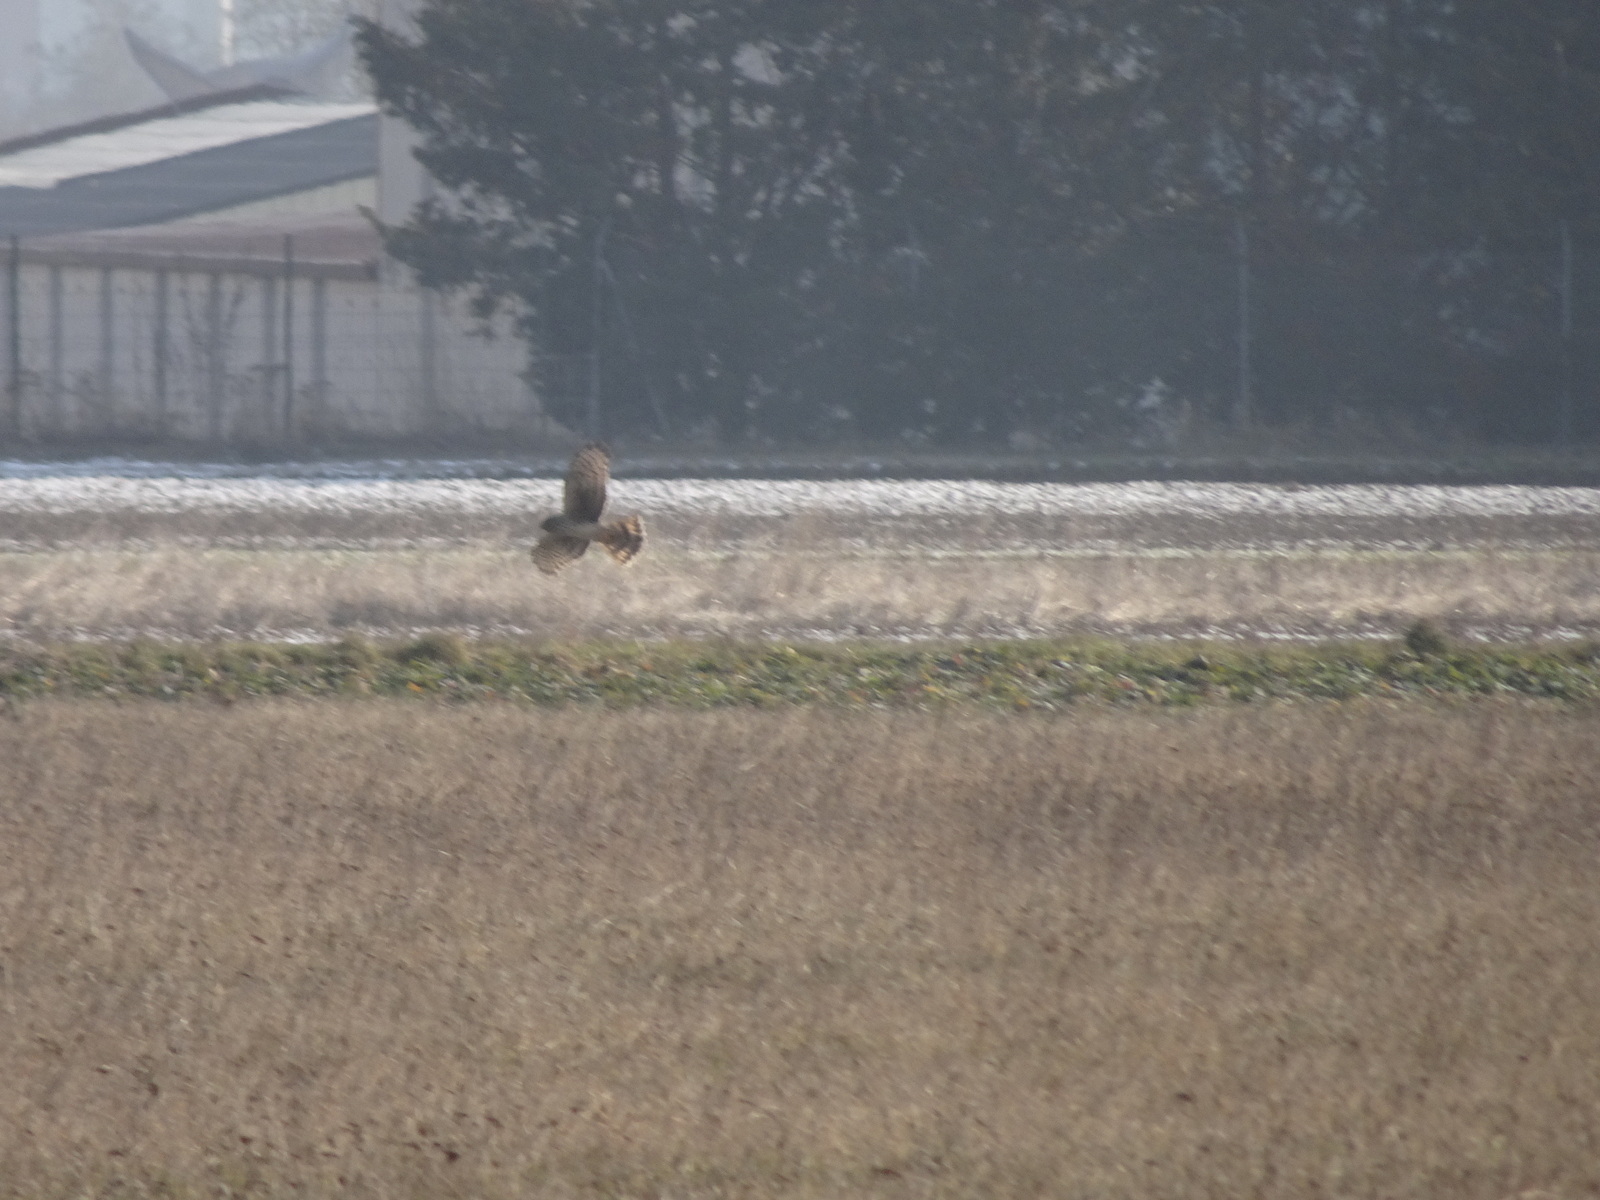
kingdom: Animalia
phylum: Chordata
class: Aves
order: Accipitriformes
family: Accipitridae
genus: Circus
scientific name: Circus cyaneus
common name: Hen harrier
